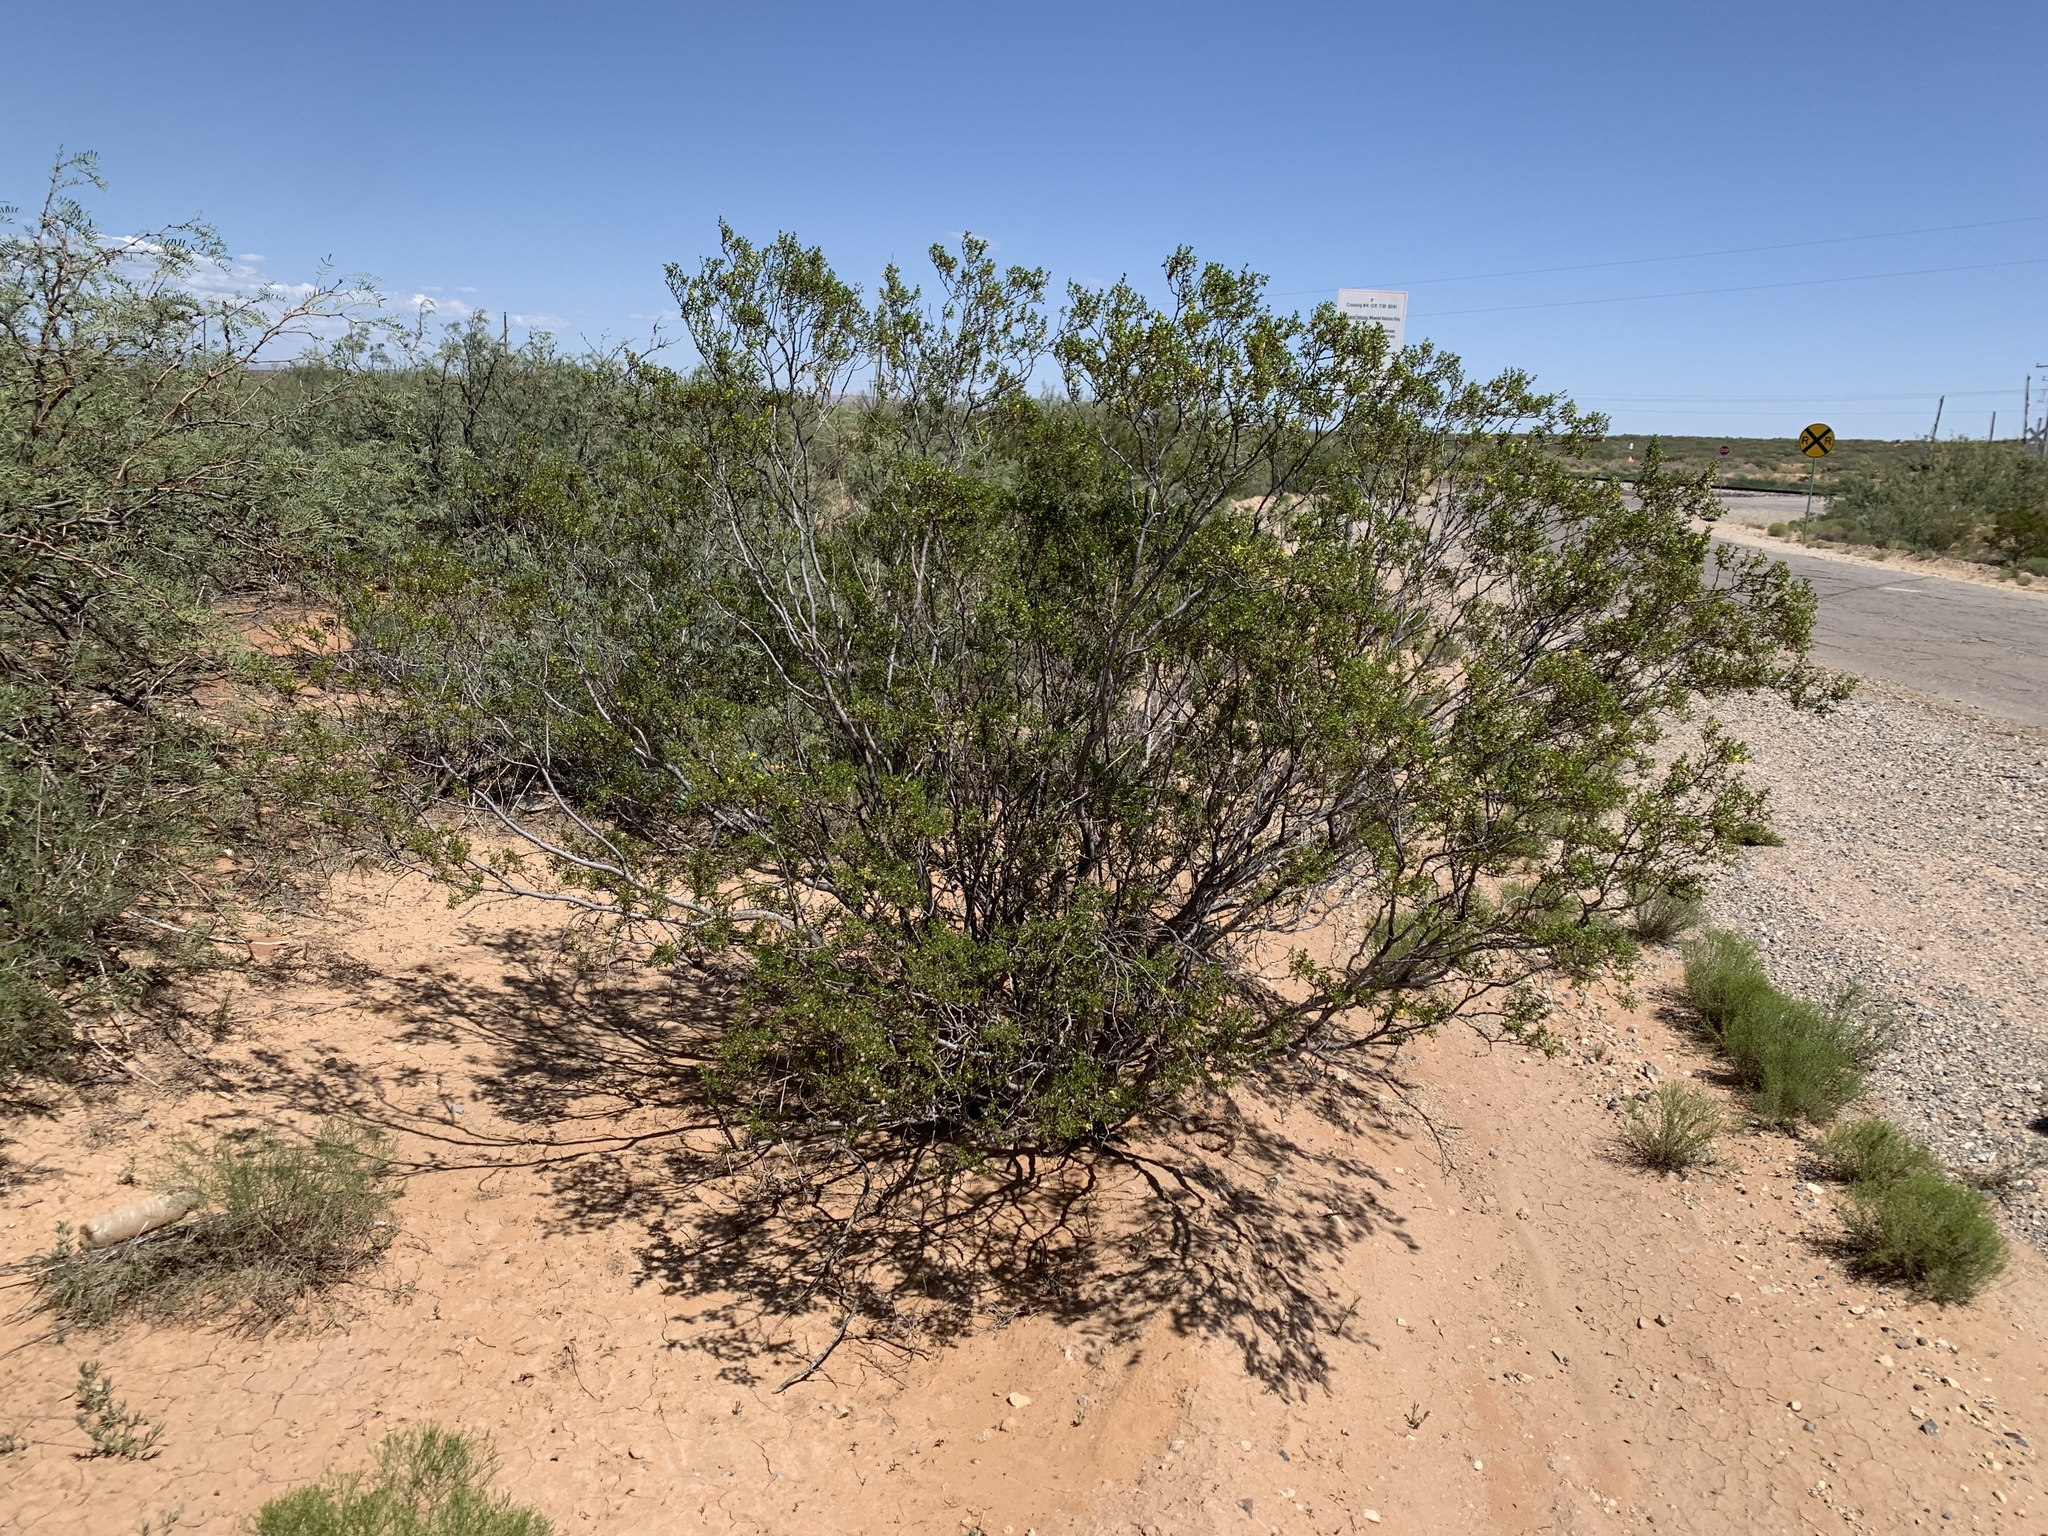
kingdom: Plantae
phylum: Tracheophyta
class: Magnoliopsida
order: Zygophyllales
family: Zygophyllaceae
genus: Larrea
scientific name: Larrea tridentata
